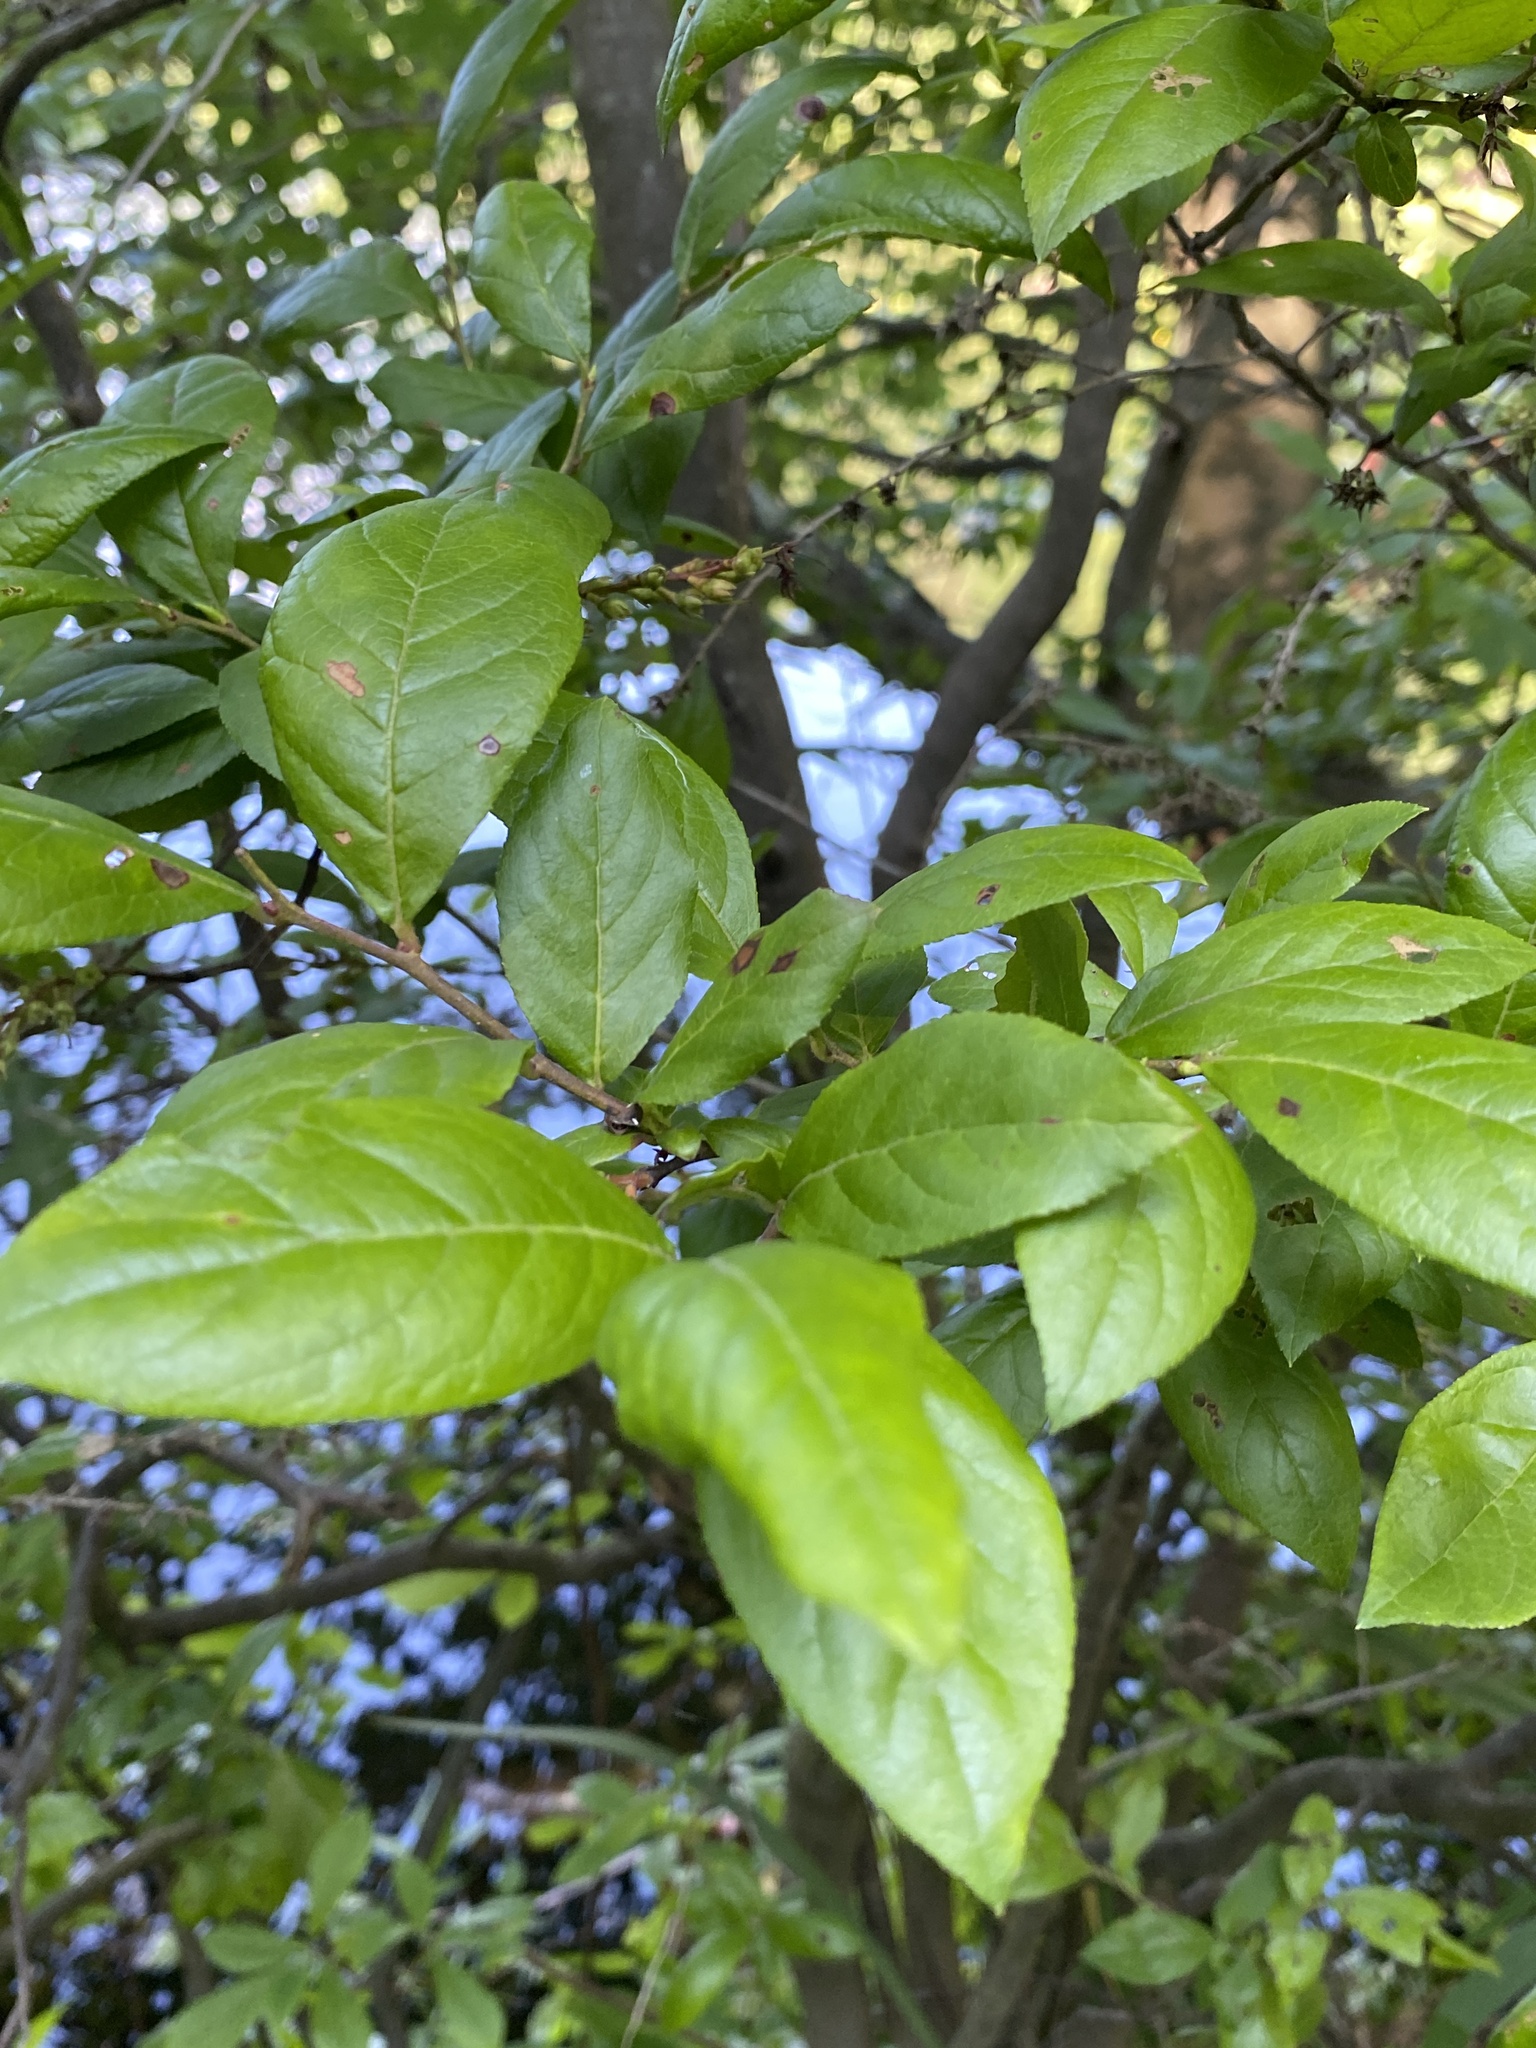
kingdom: Plantae
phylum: Tracheophyta
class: Magnoliopsida
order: Ericales
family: Ericaceae
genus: Eubotrys
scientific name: Eubotrys racemosa
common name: Fetterbush
